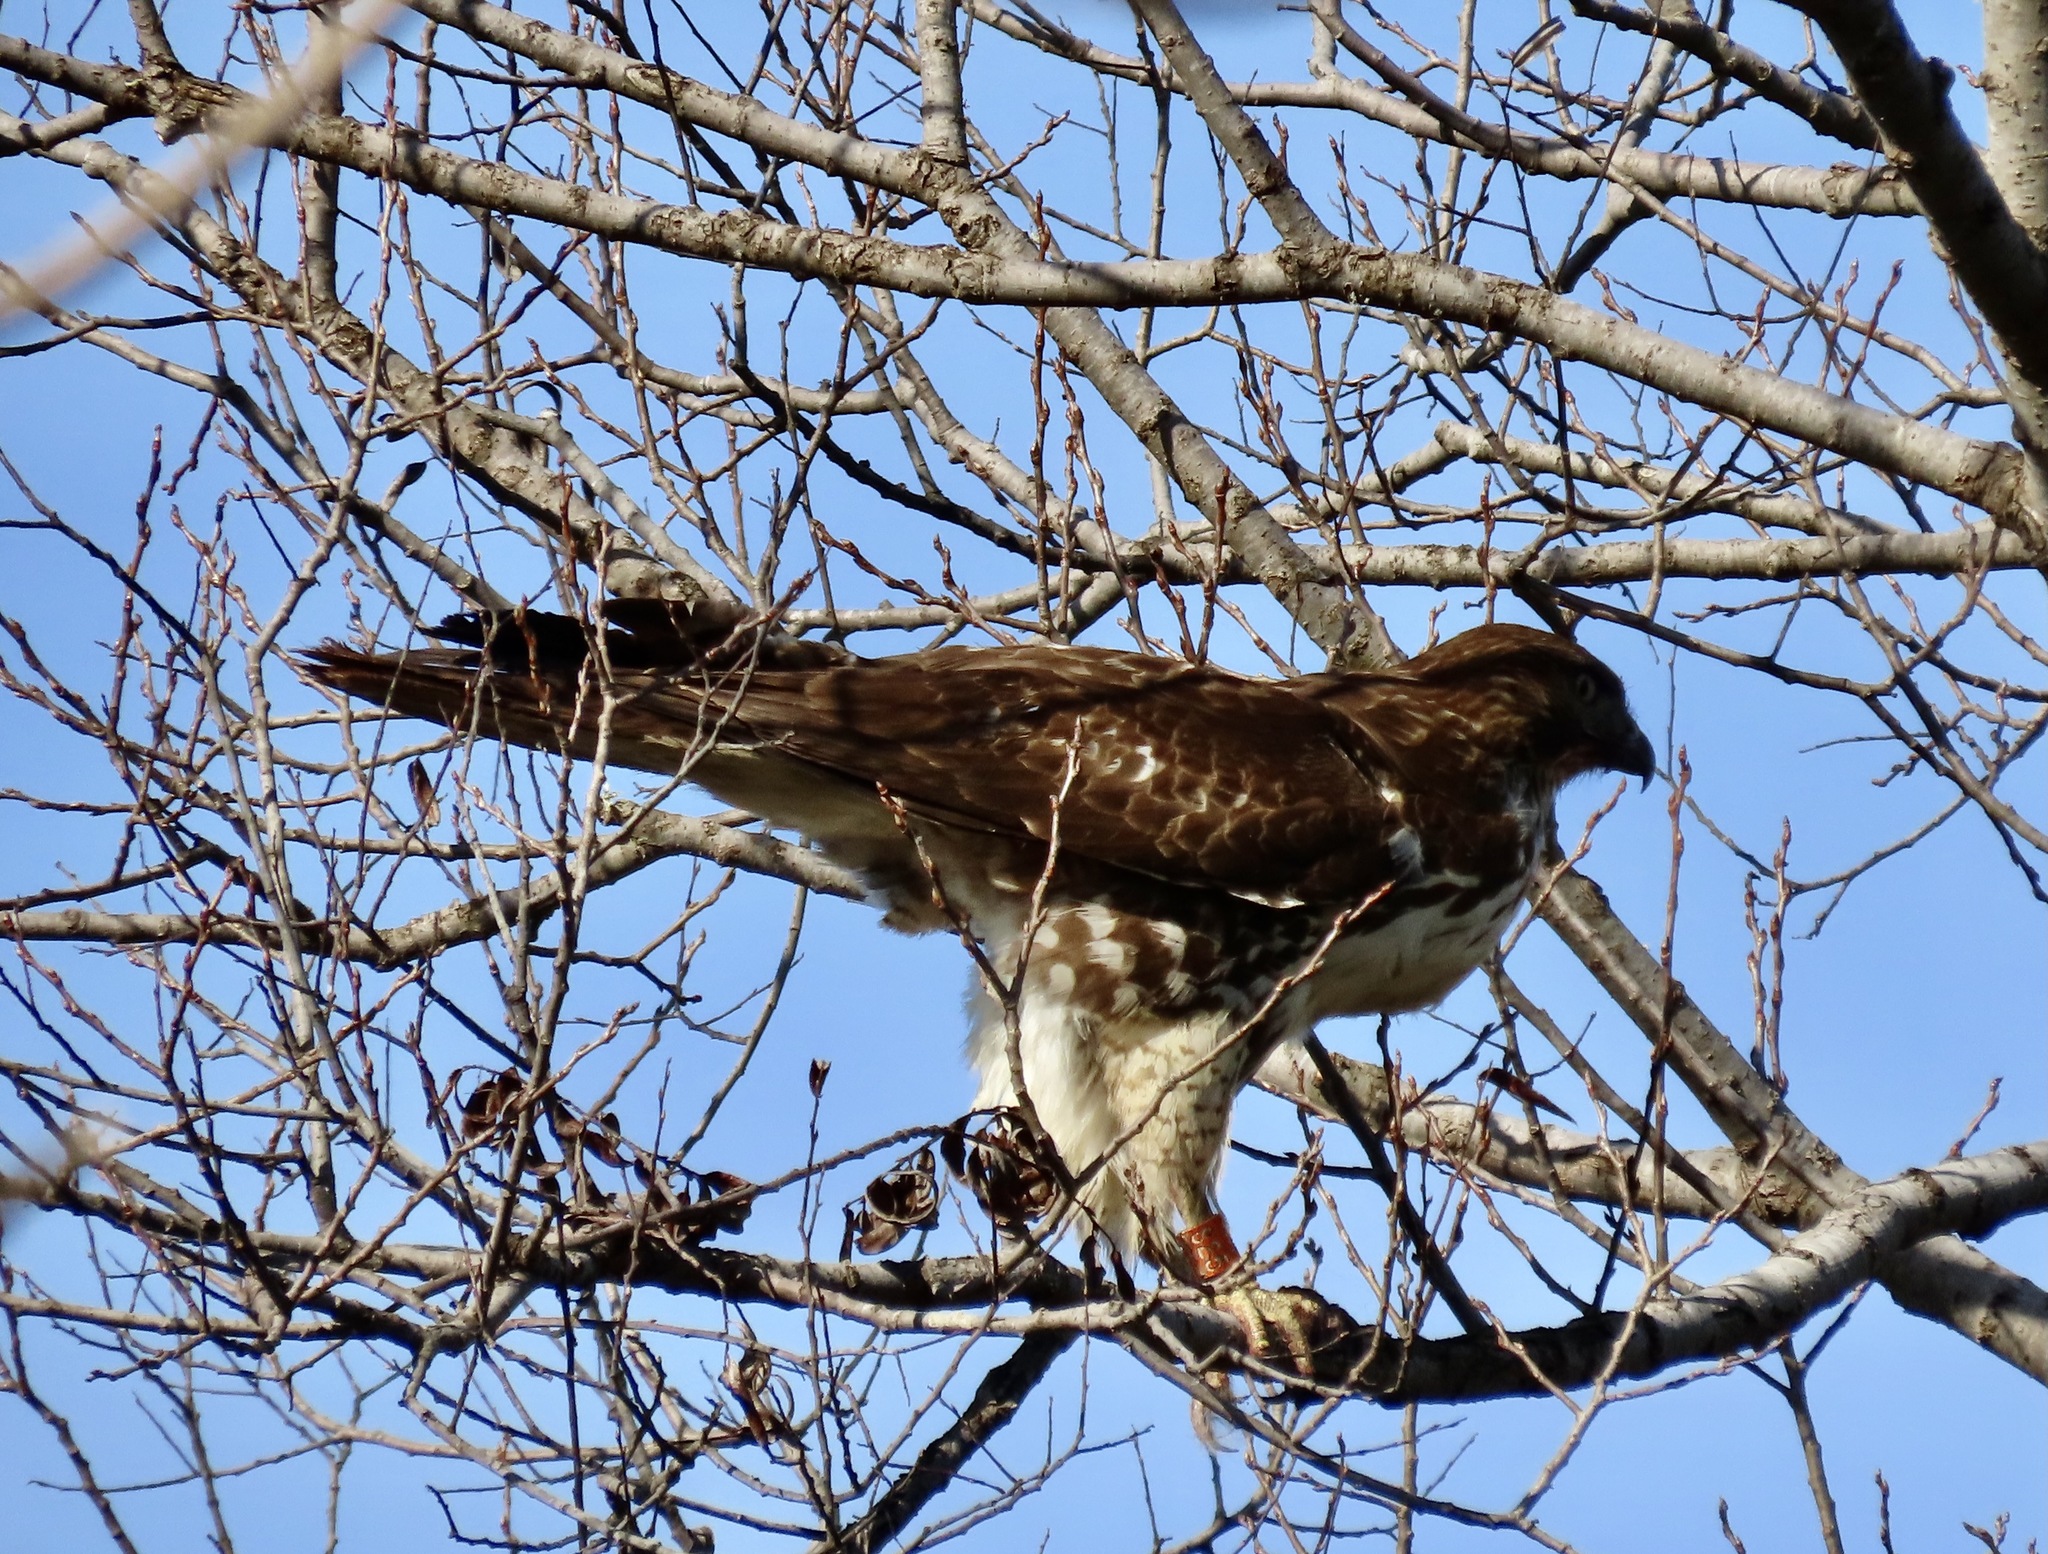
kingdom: Animalia
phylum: Chordata
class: Aves
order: Accipitriformes
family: Accipitridae
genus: Buteo
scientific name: Buteo jamaicensis
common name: Red-tailed hawk
